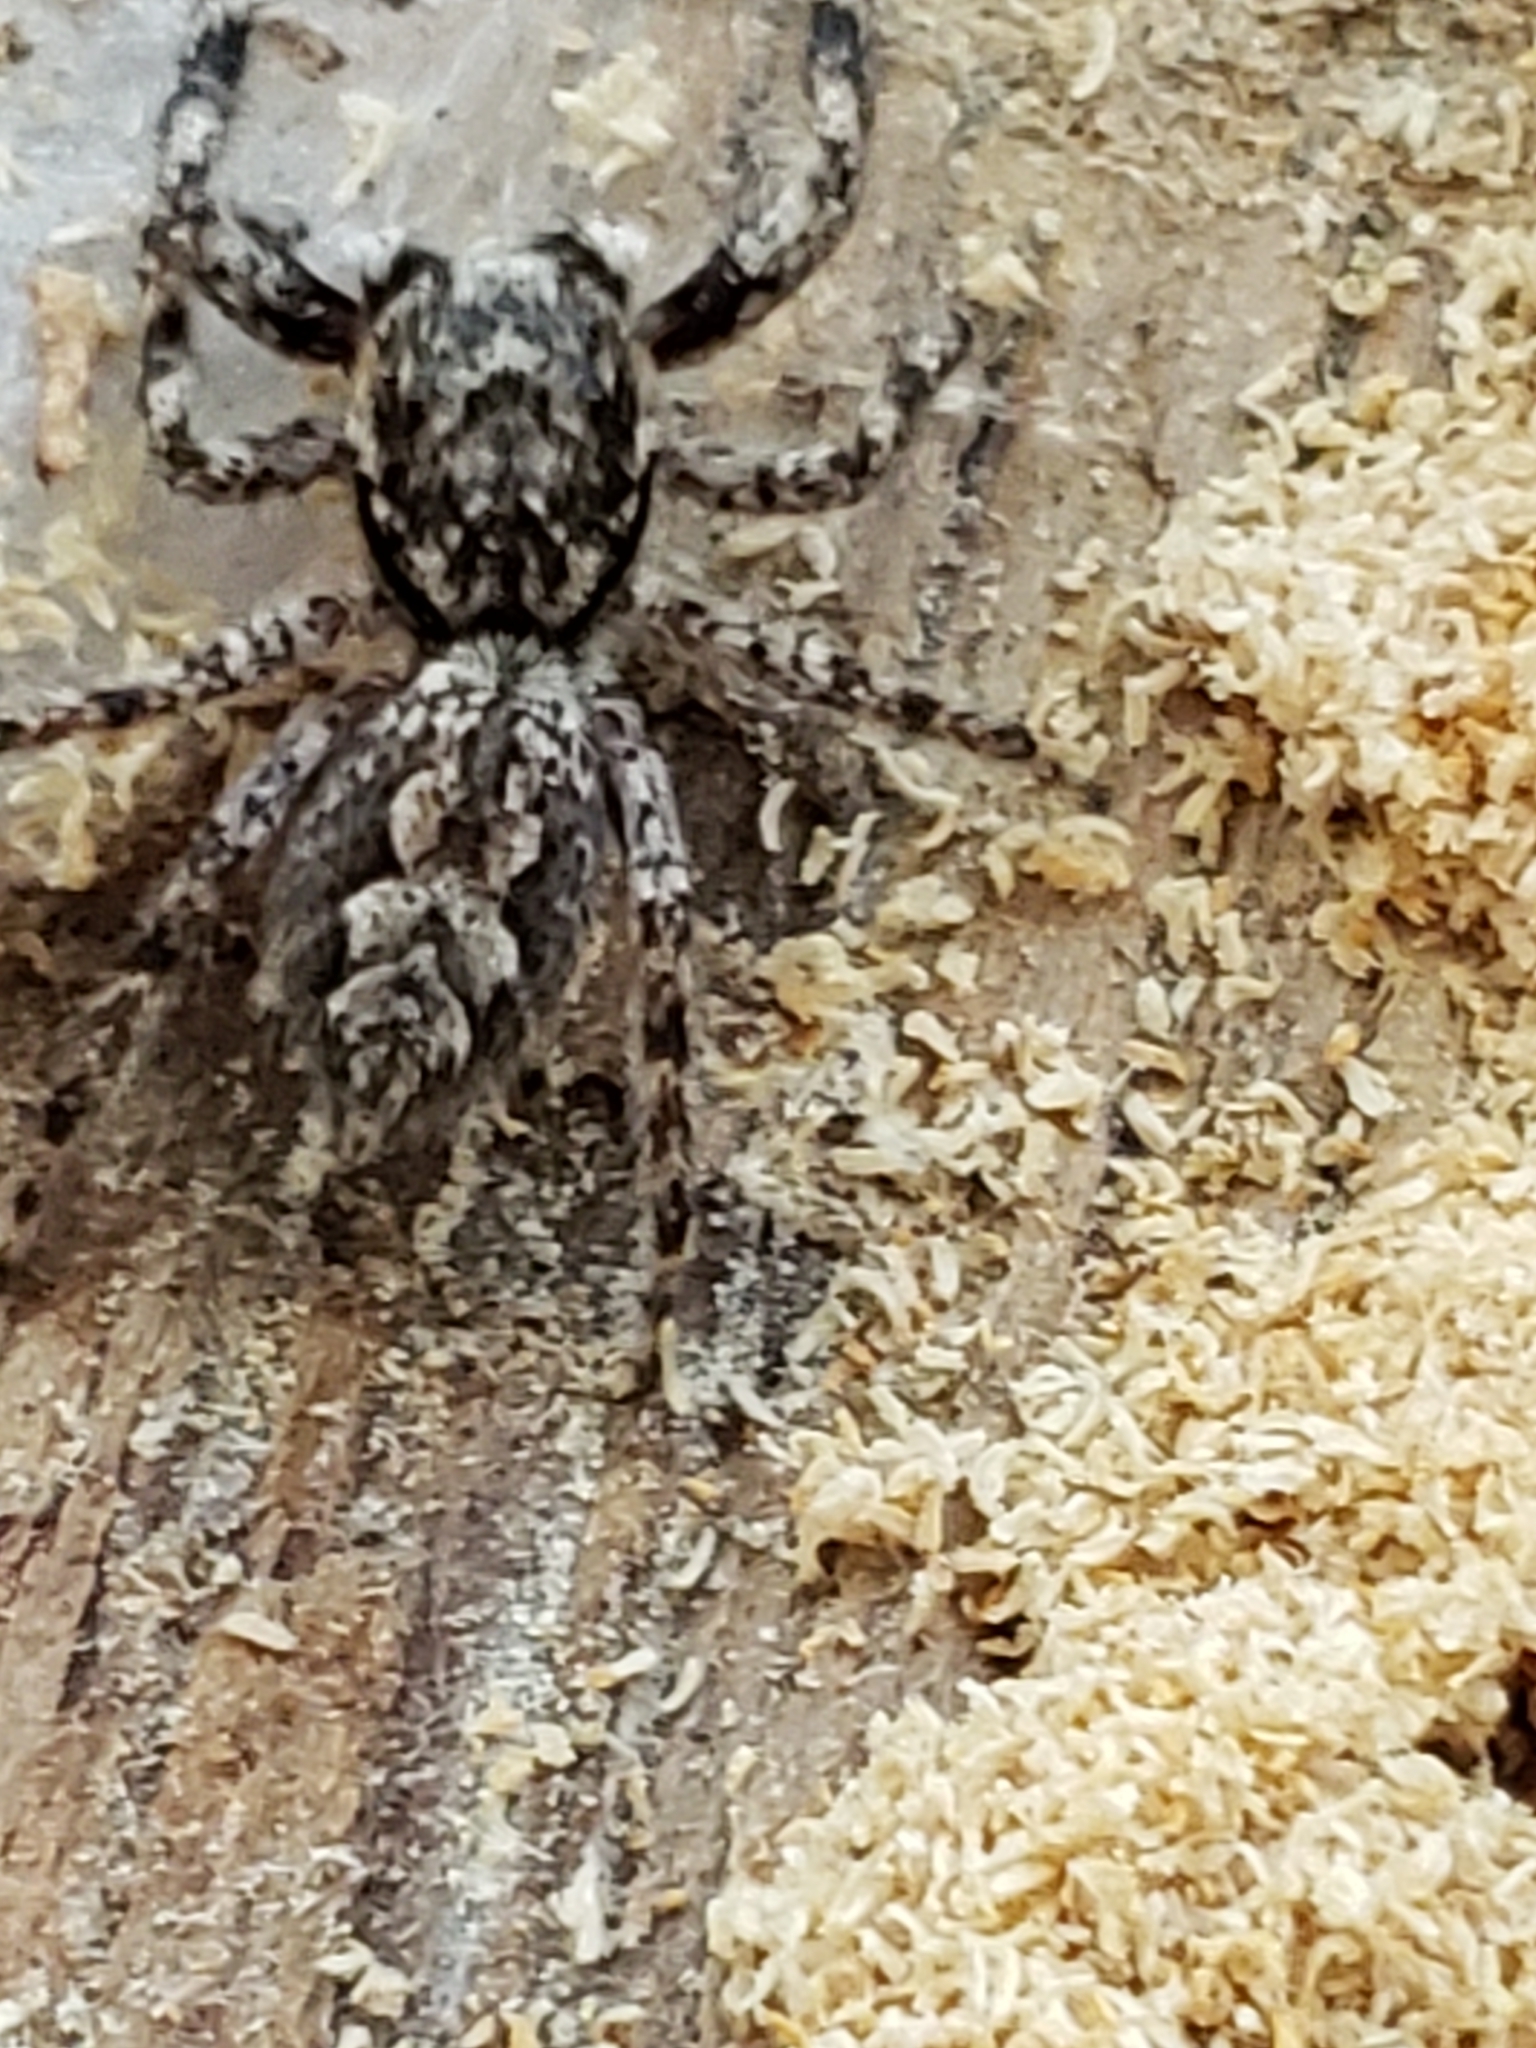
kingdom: Animalia
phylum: Arthropoda
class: Arachnida
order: Araneae
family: Salticidae
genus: Platycryptus
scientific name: Platycryptus undatus
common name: Tan jumping spider
